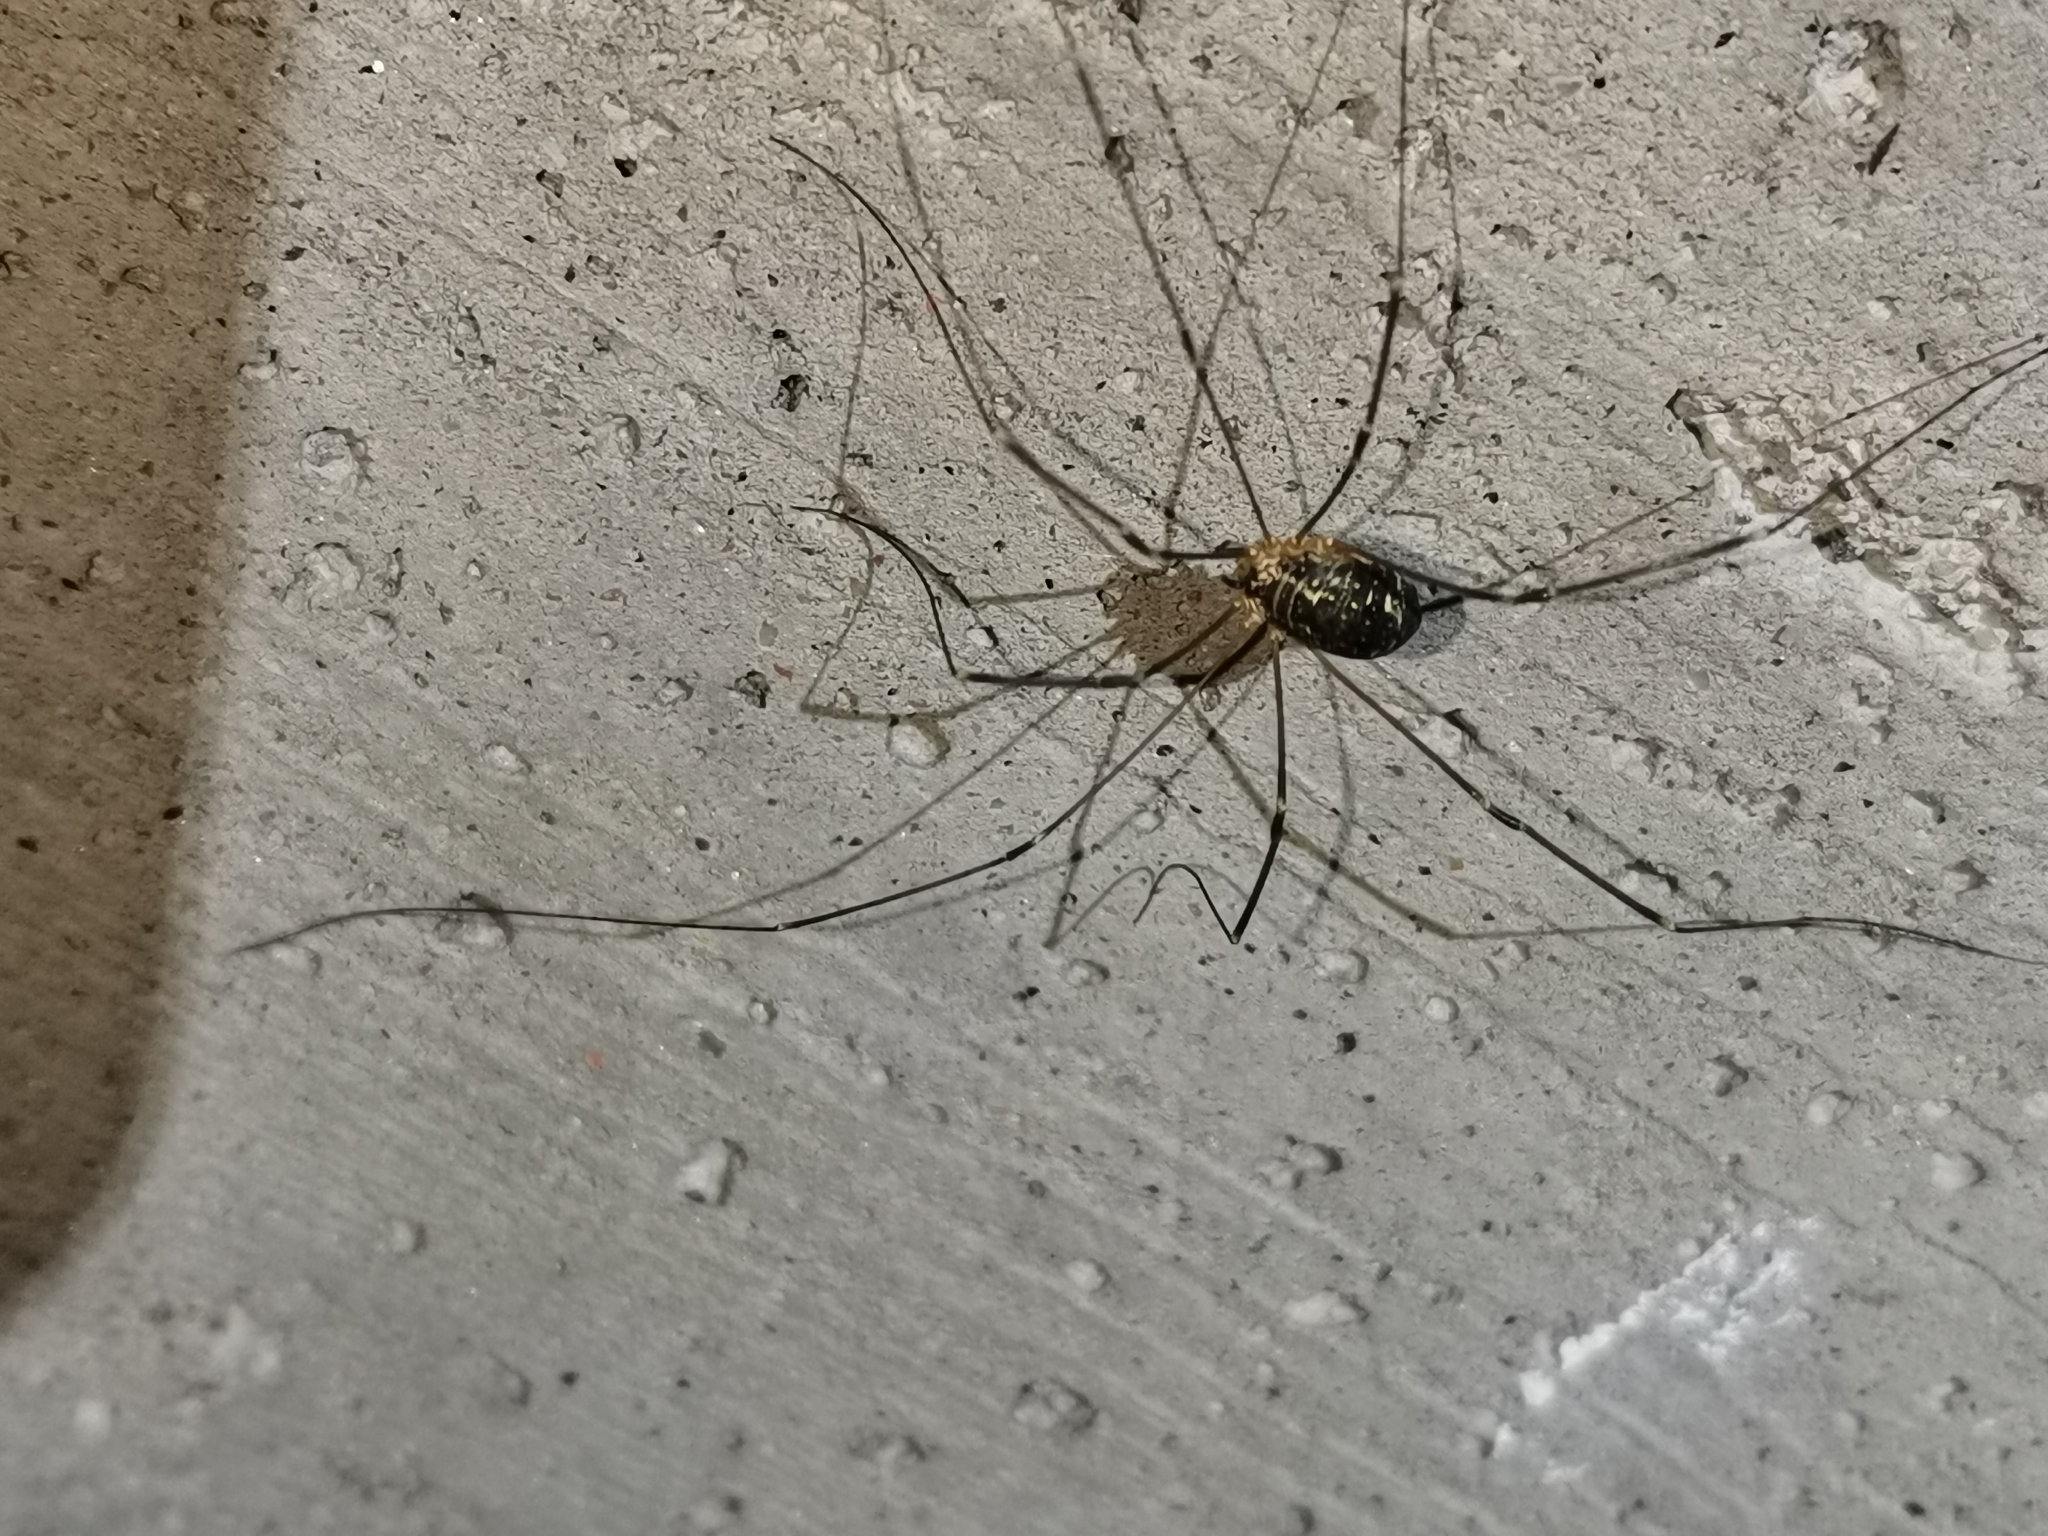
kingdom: Animalia
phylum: Arthropoda
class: Arachnida
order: Opiliones
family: Sclerosomatidae
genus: Leiobunum
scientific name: Leiobunum gracile
